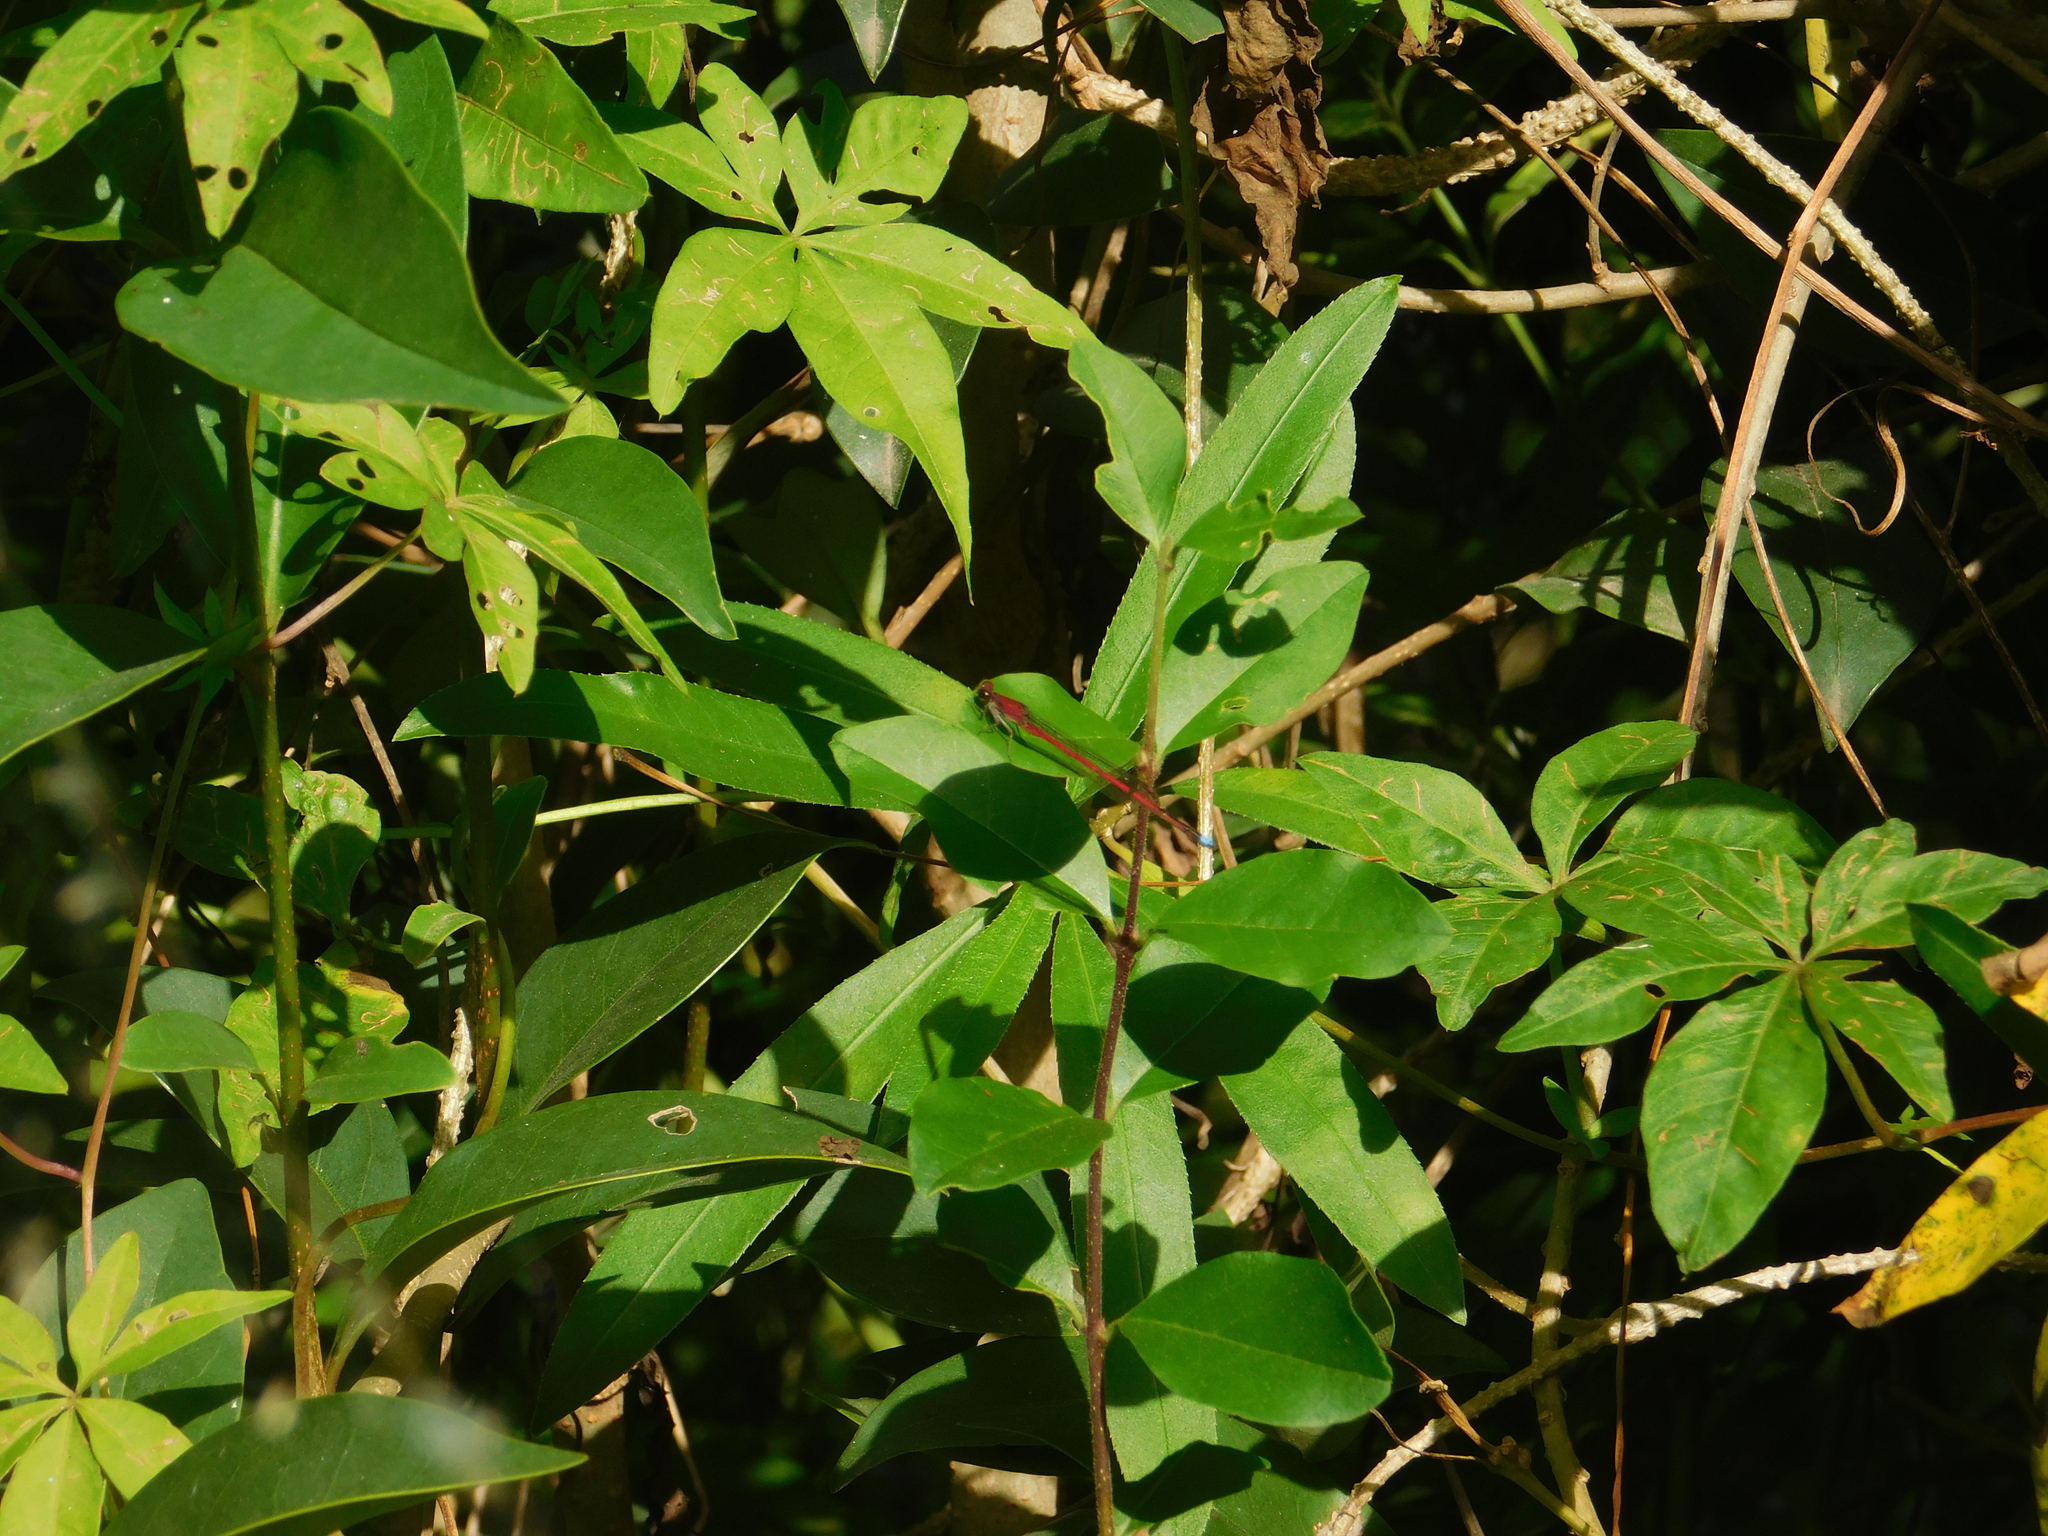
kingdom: Animalia
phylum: Arthropoda
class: Insecta
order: Odonata
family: Coenagrionidae
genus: Oxyagrion
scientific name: Oxyagrion terminale
